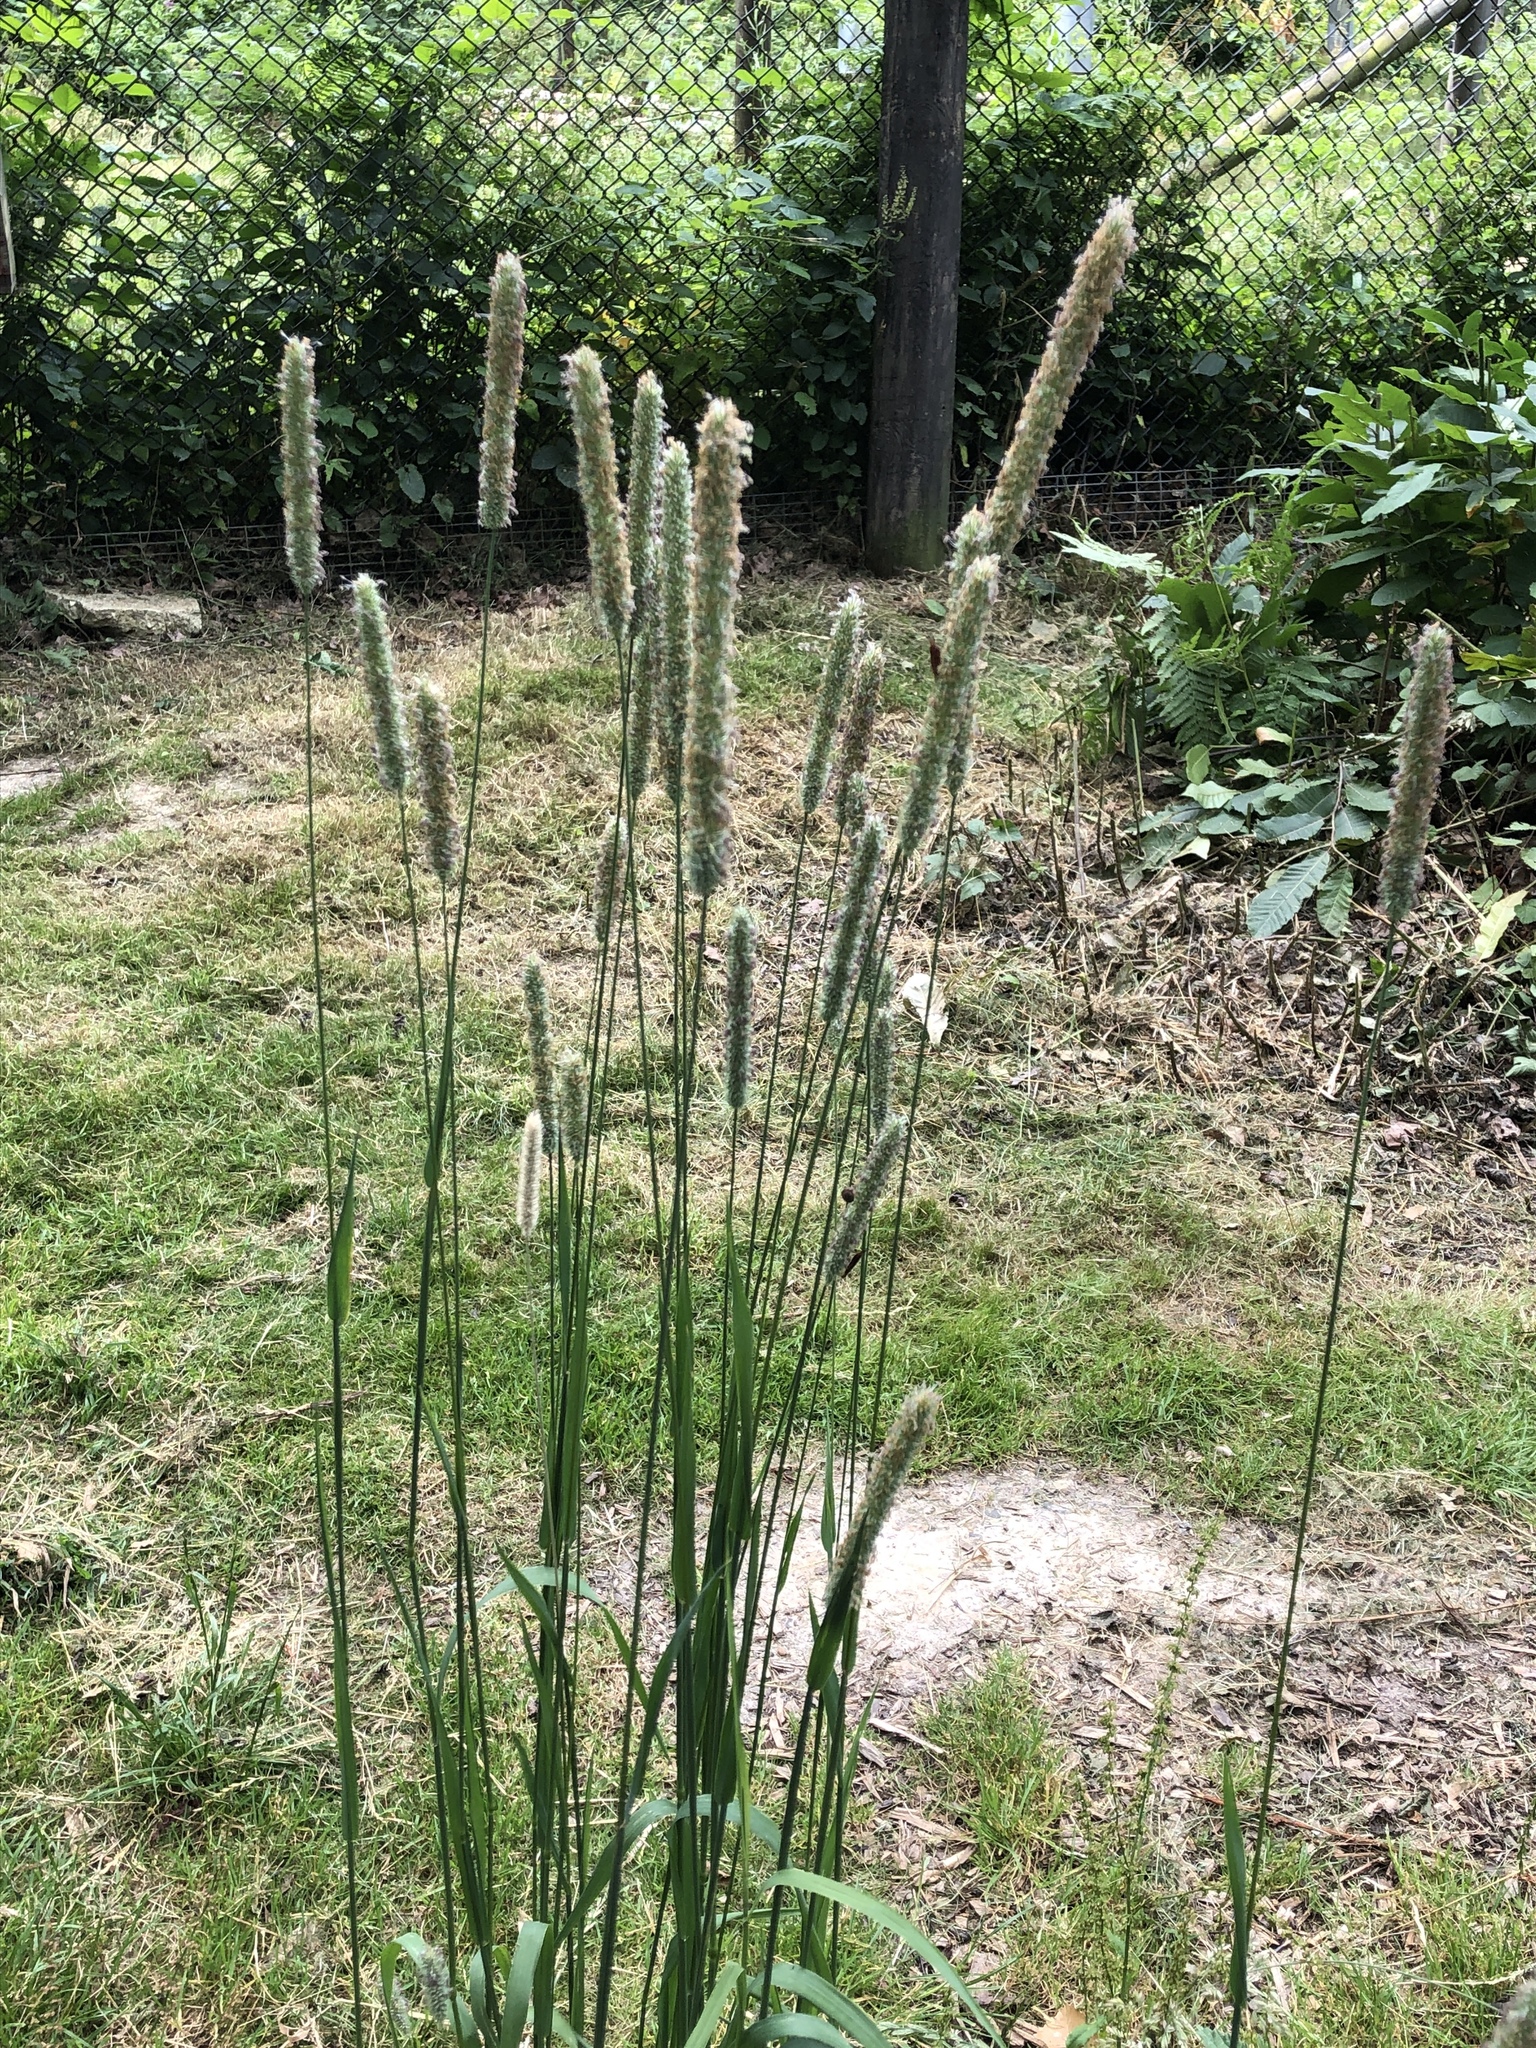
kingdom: Plantae
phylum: Tracheophyta
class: Liliopsida
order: Poales
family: Poaceae
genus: Phleum
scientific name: Phleum pratense
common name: Timothy grass
